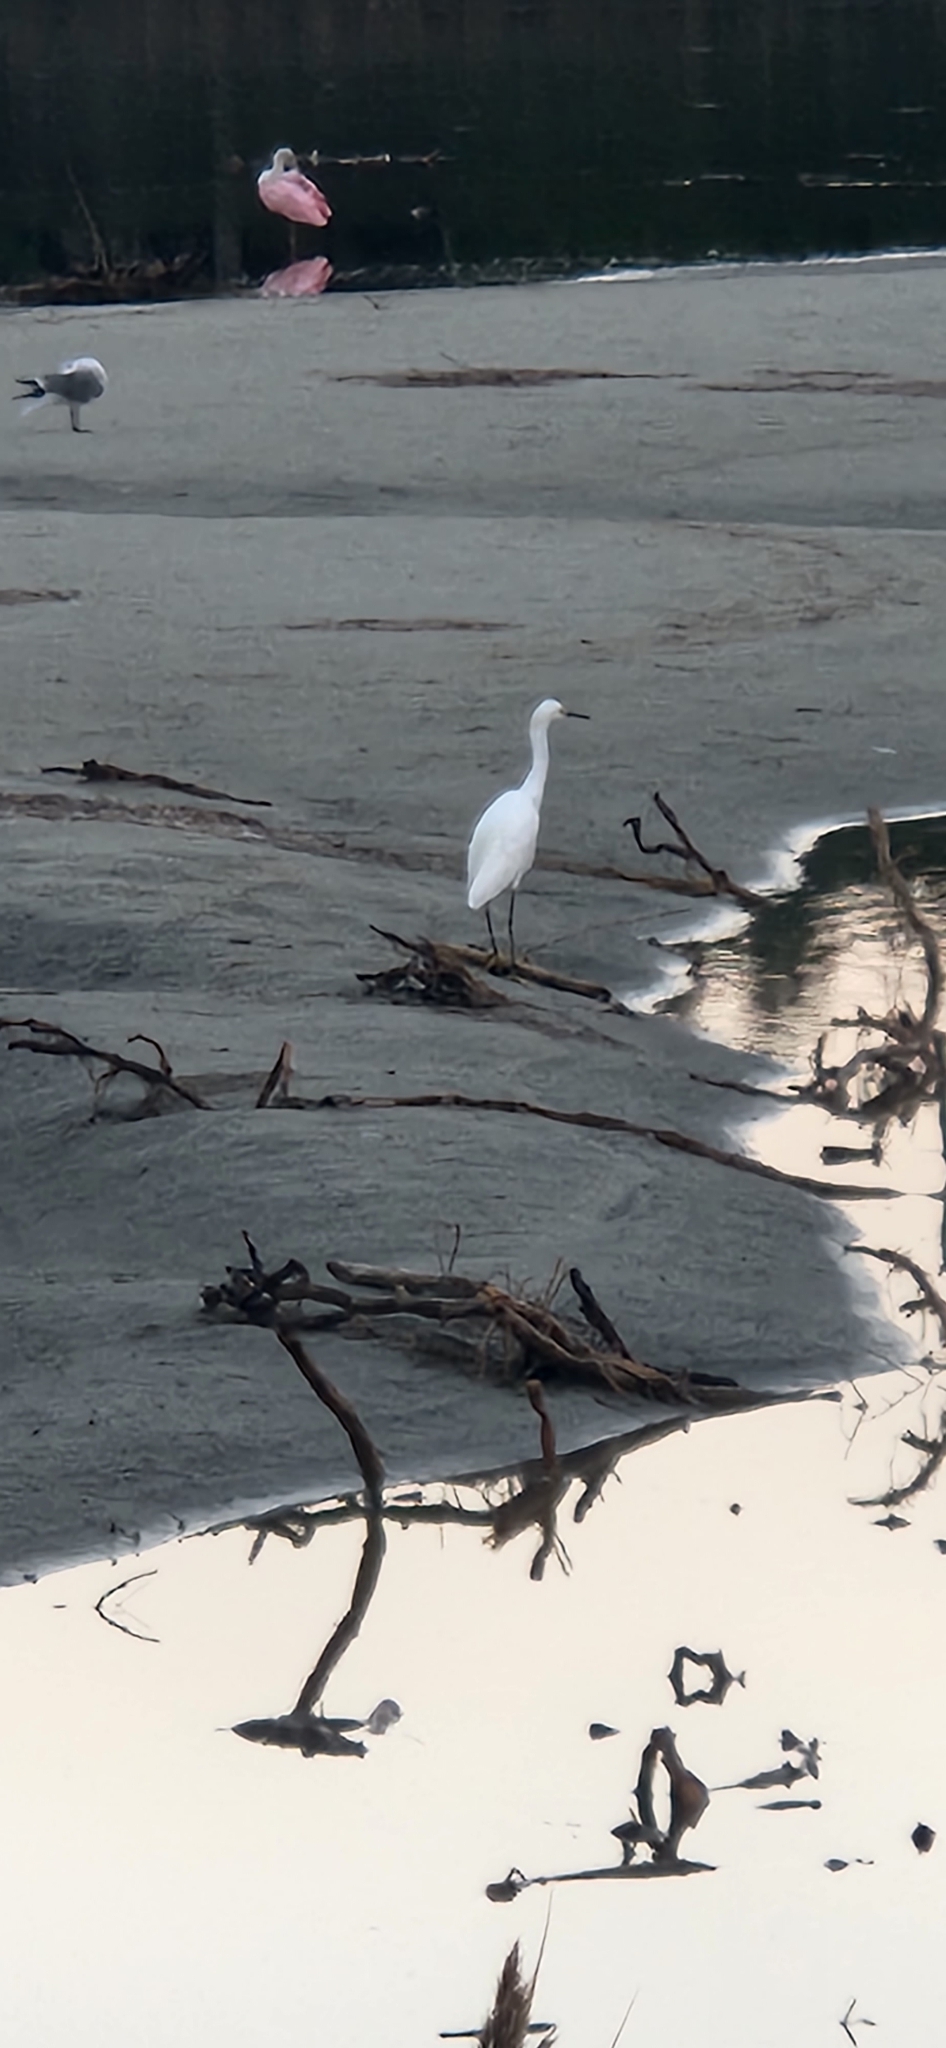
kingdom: Animalia
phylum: Chordata
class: Aves
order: Pelecaniformes
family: Ardeidae
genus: Egretta
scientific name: Egretta thula
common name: Snowy egret
